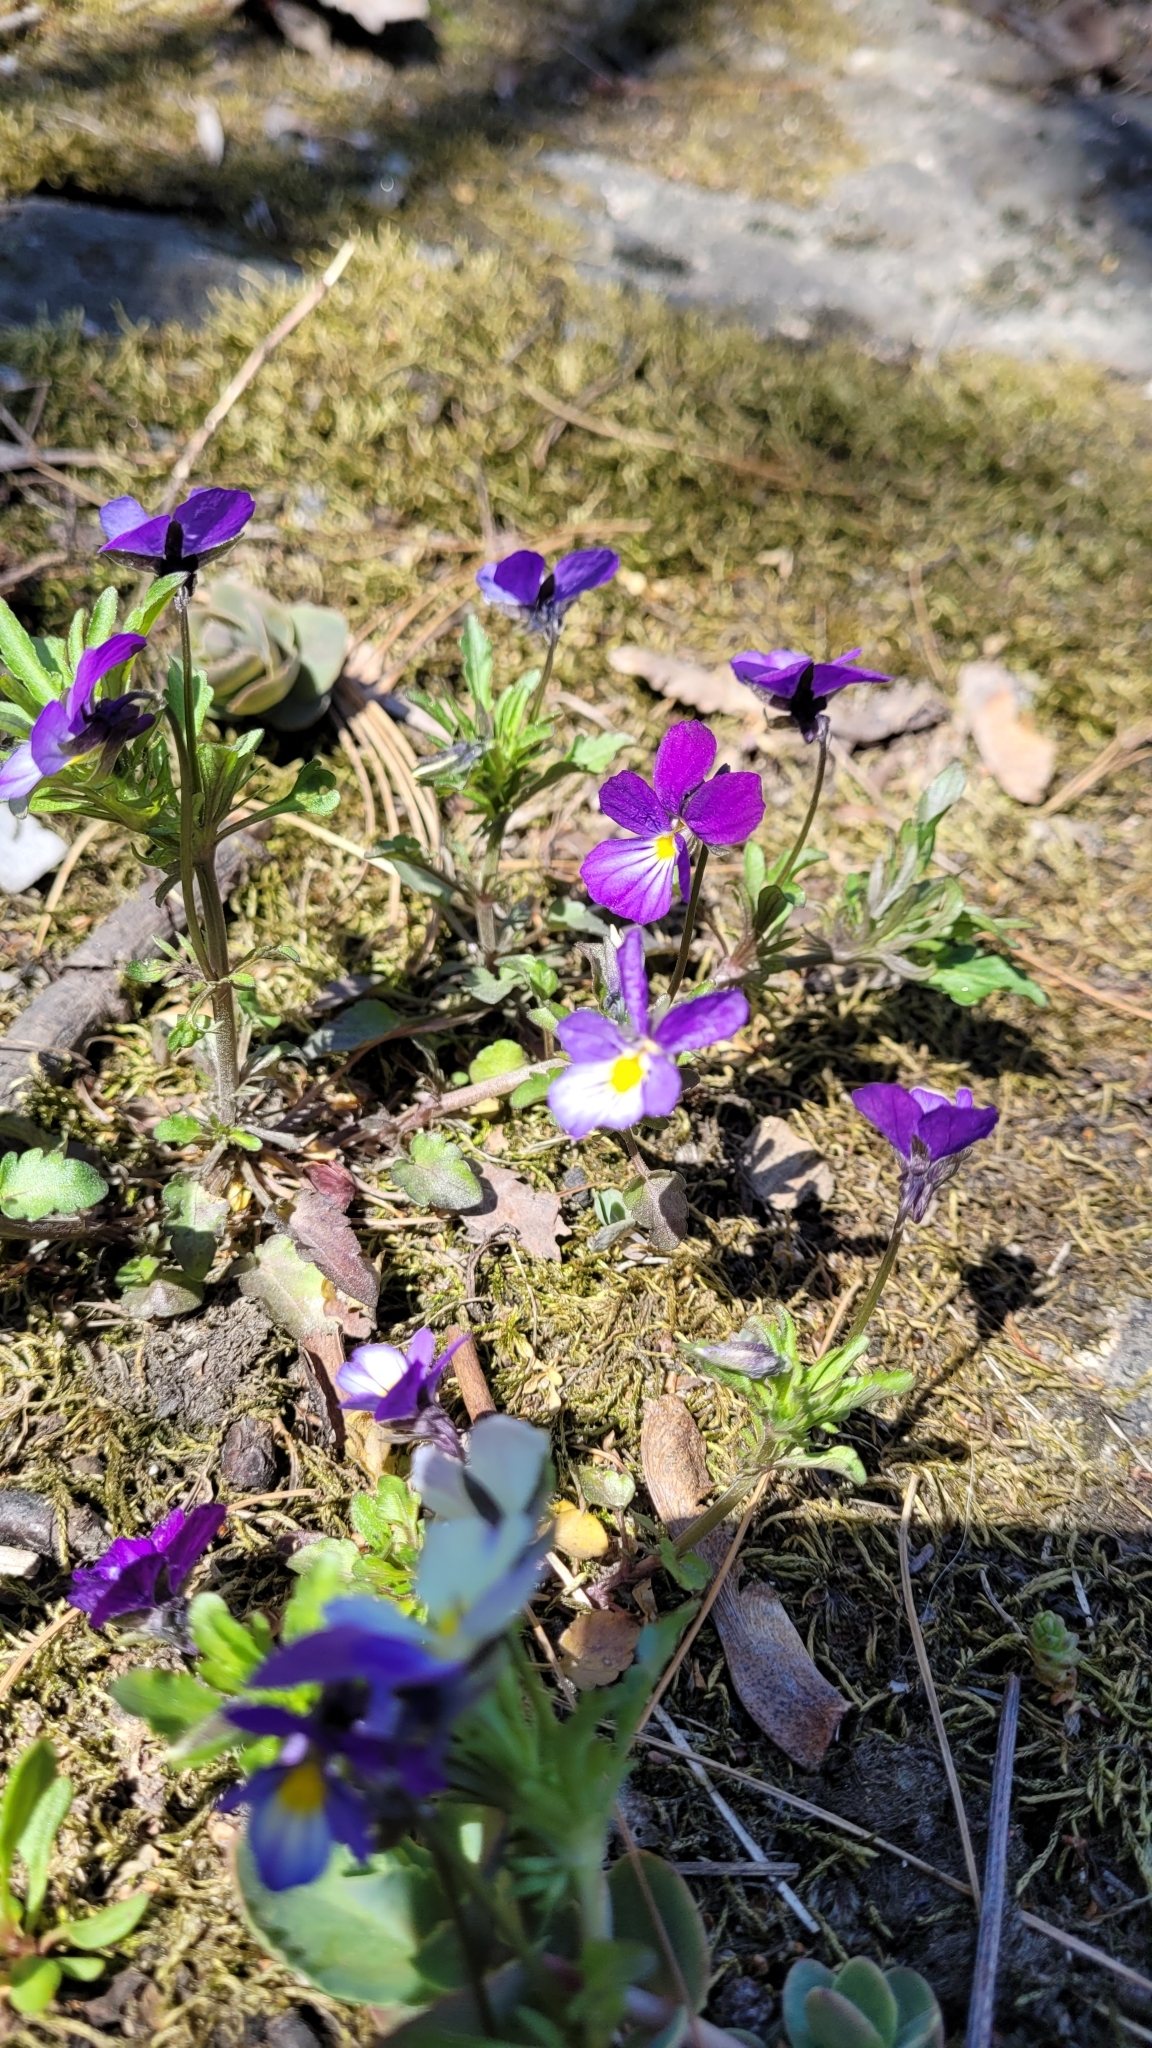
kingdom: Plantae
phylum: Tracheophyta
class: Magnoliopsida
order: Malpighiales
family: Violaceae
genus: Viola
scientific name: Viola tricolor
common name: Pansy
